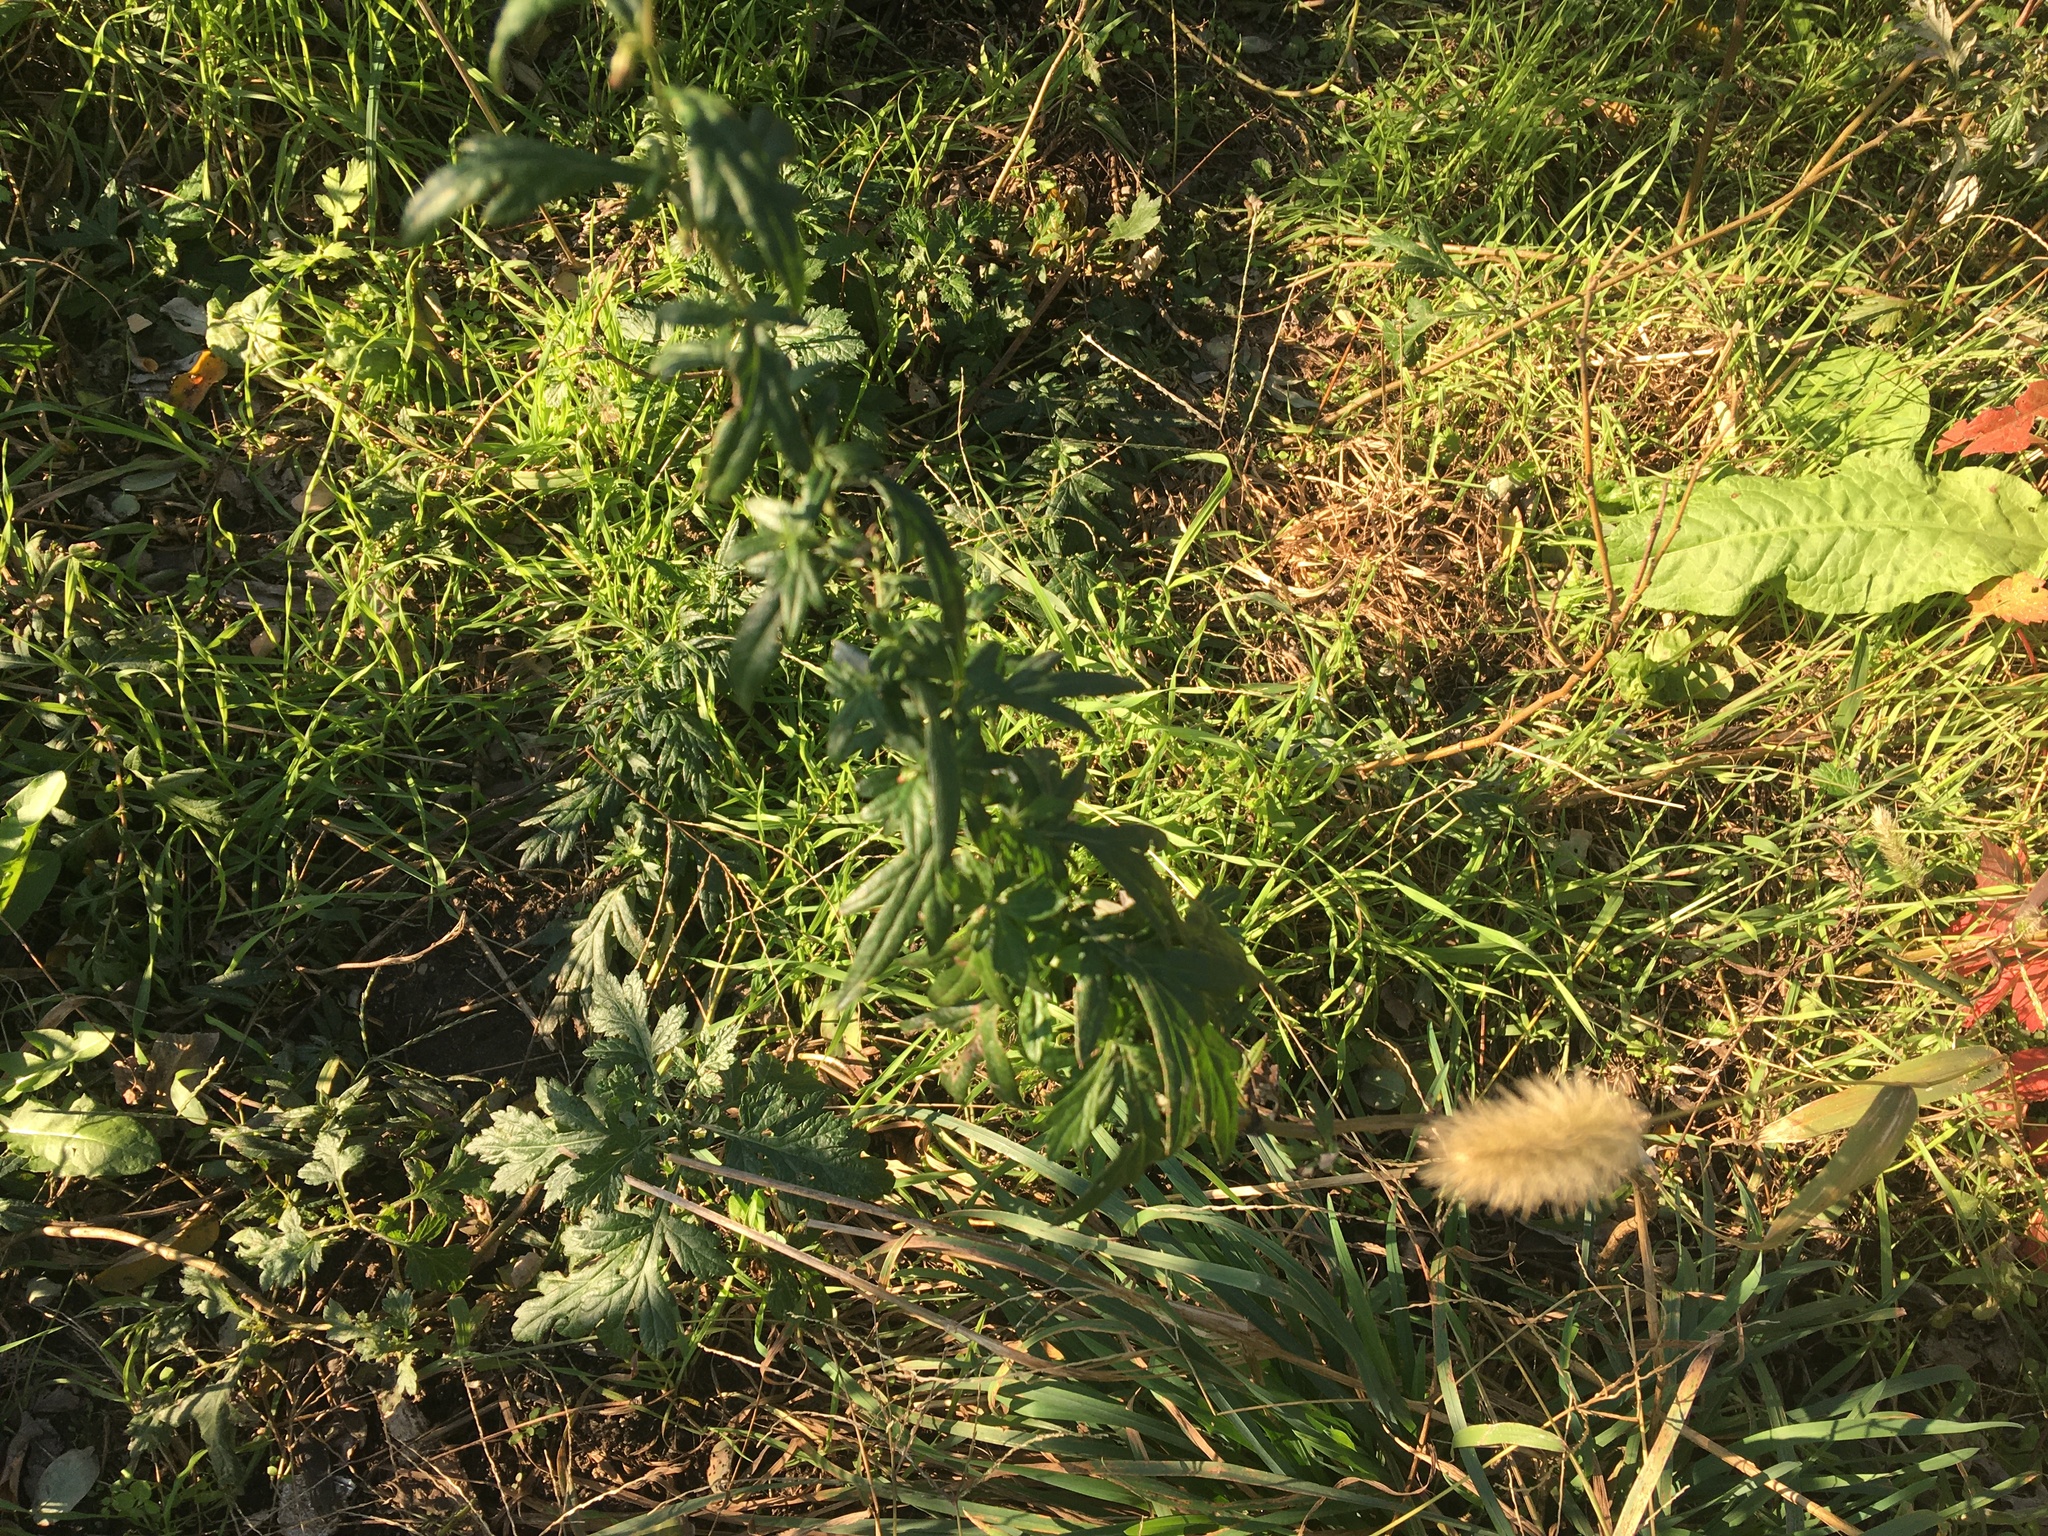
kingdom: Plantae
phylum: Tracheophyta
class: Magnoliopsida
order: Asterales
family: Asteraceae
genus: Artemisia
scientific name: Artemisia vulgaris
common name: Mugwort
